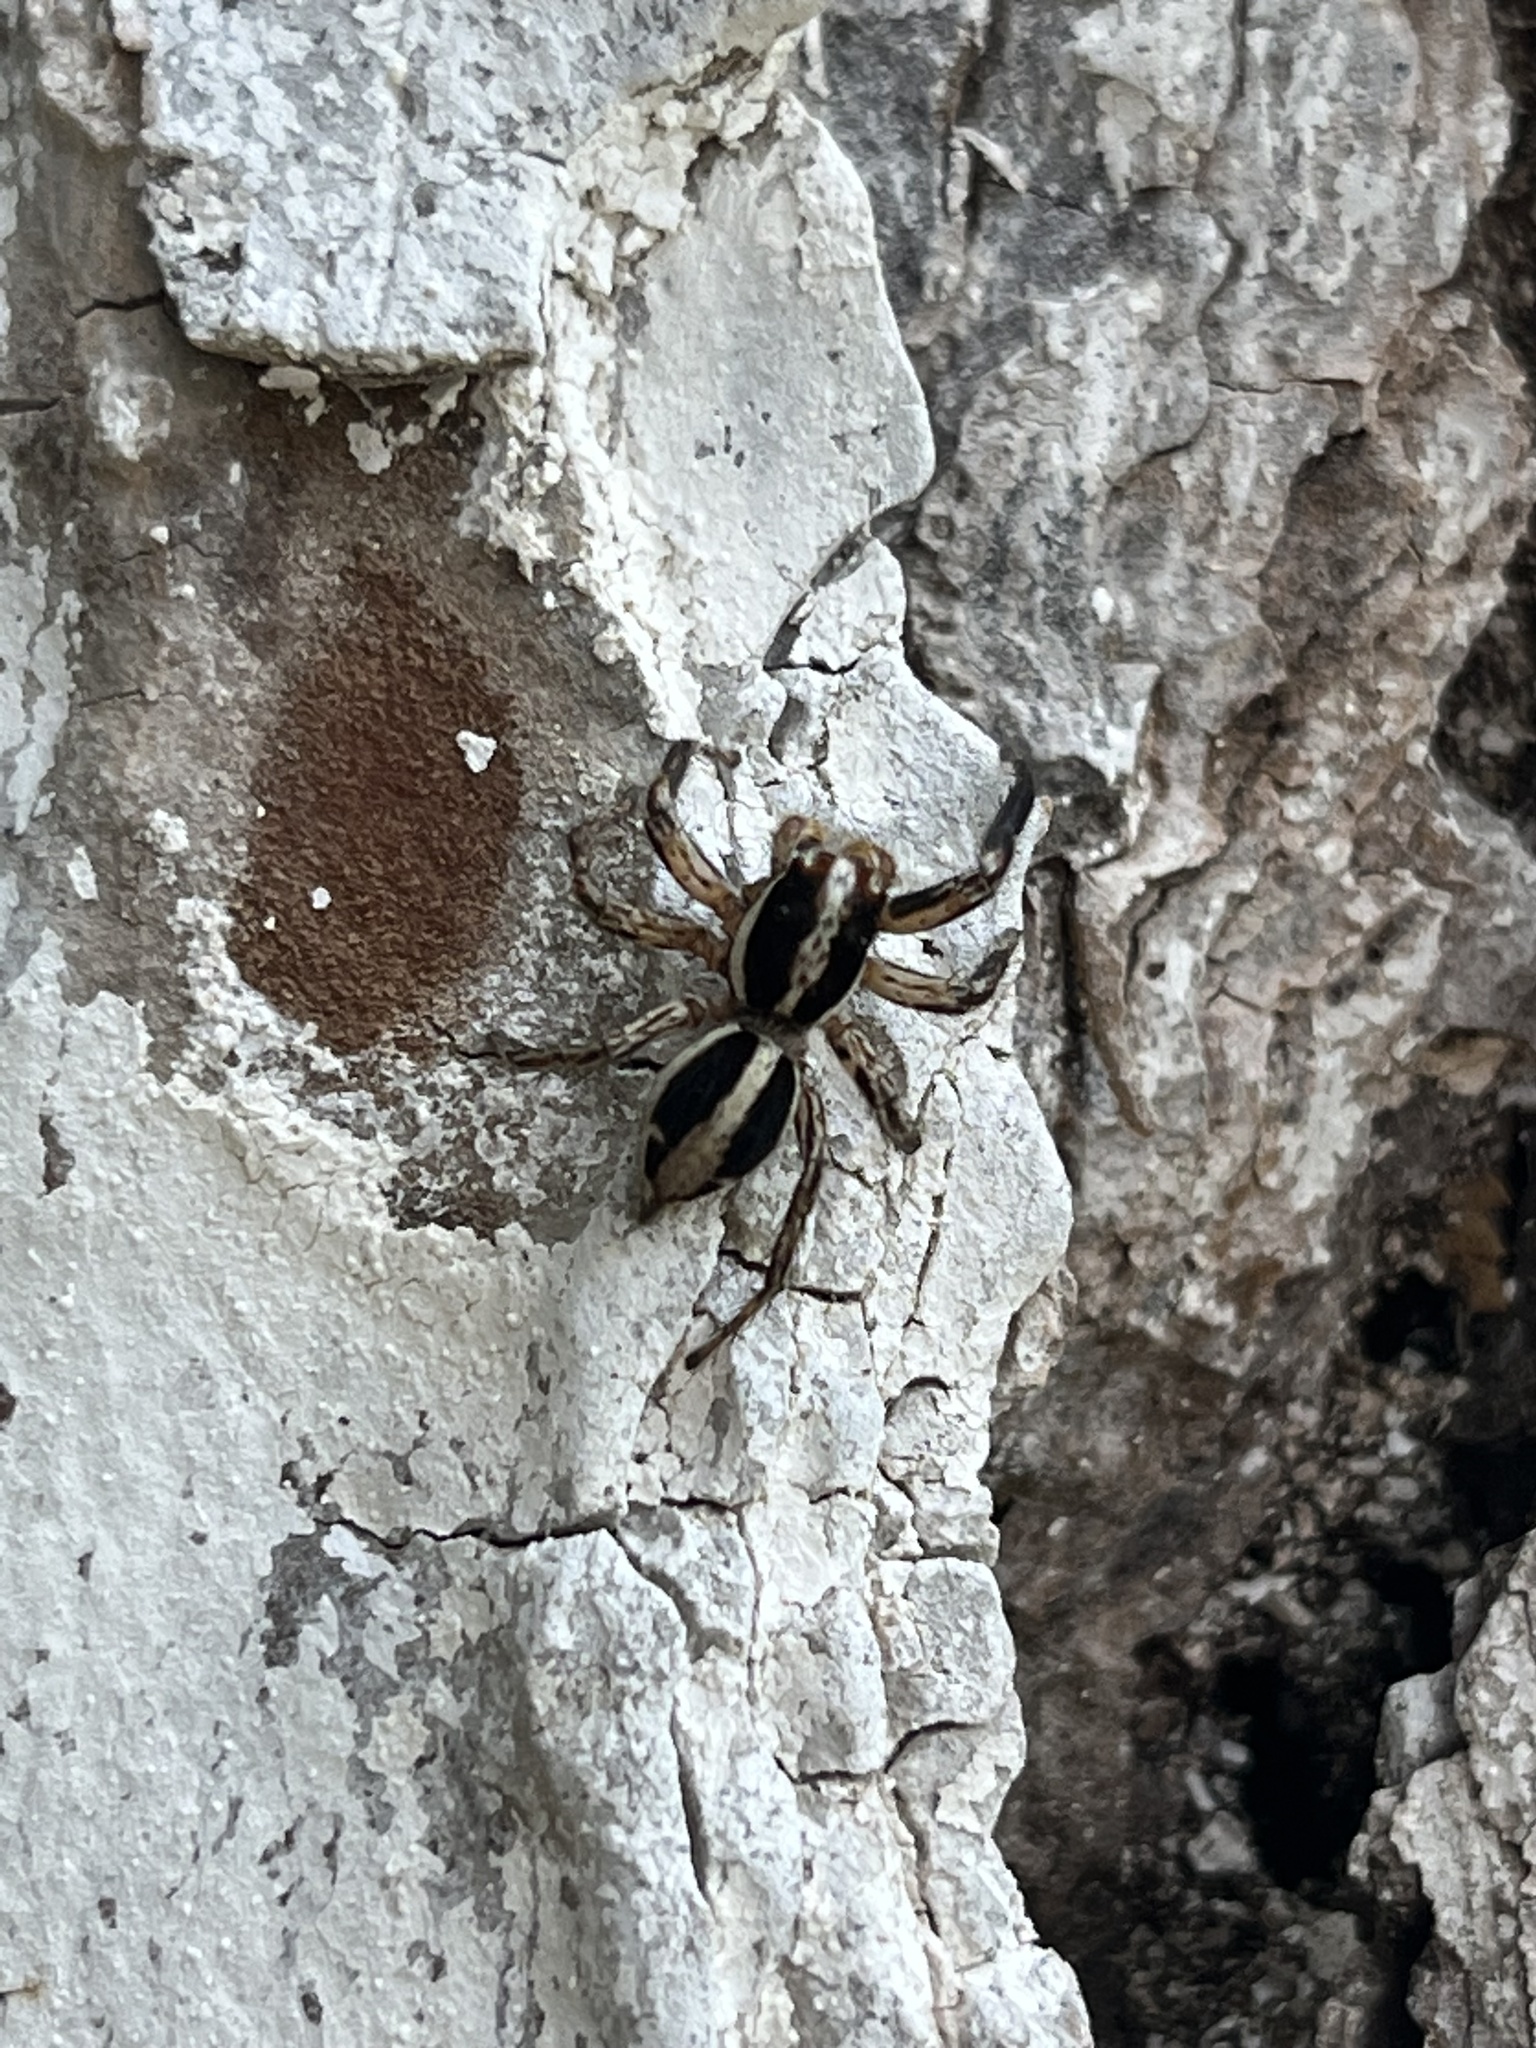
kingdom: Animalia
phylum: Arthropoda
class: Arachnida
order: Araneae
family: Salticidae
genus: Plexippus
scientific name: Plexippus paykulli
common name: Pantropical jumper
